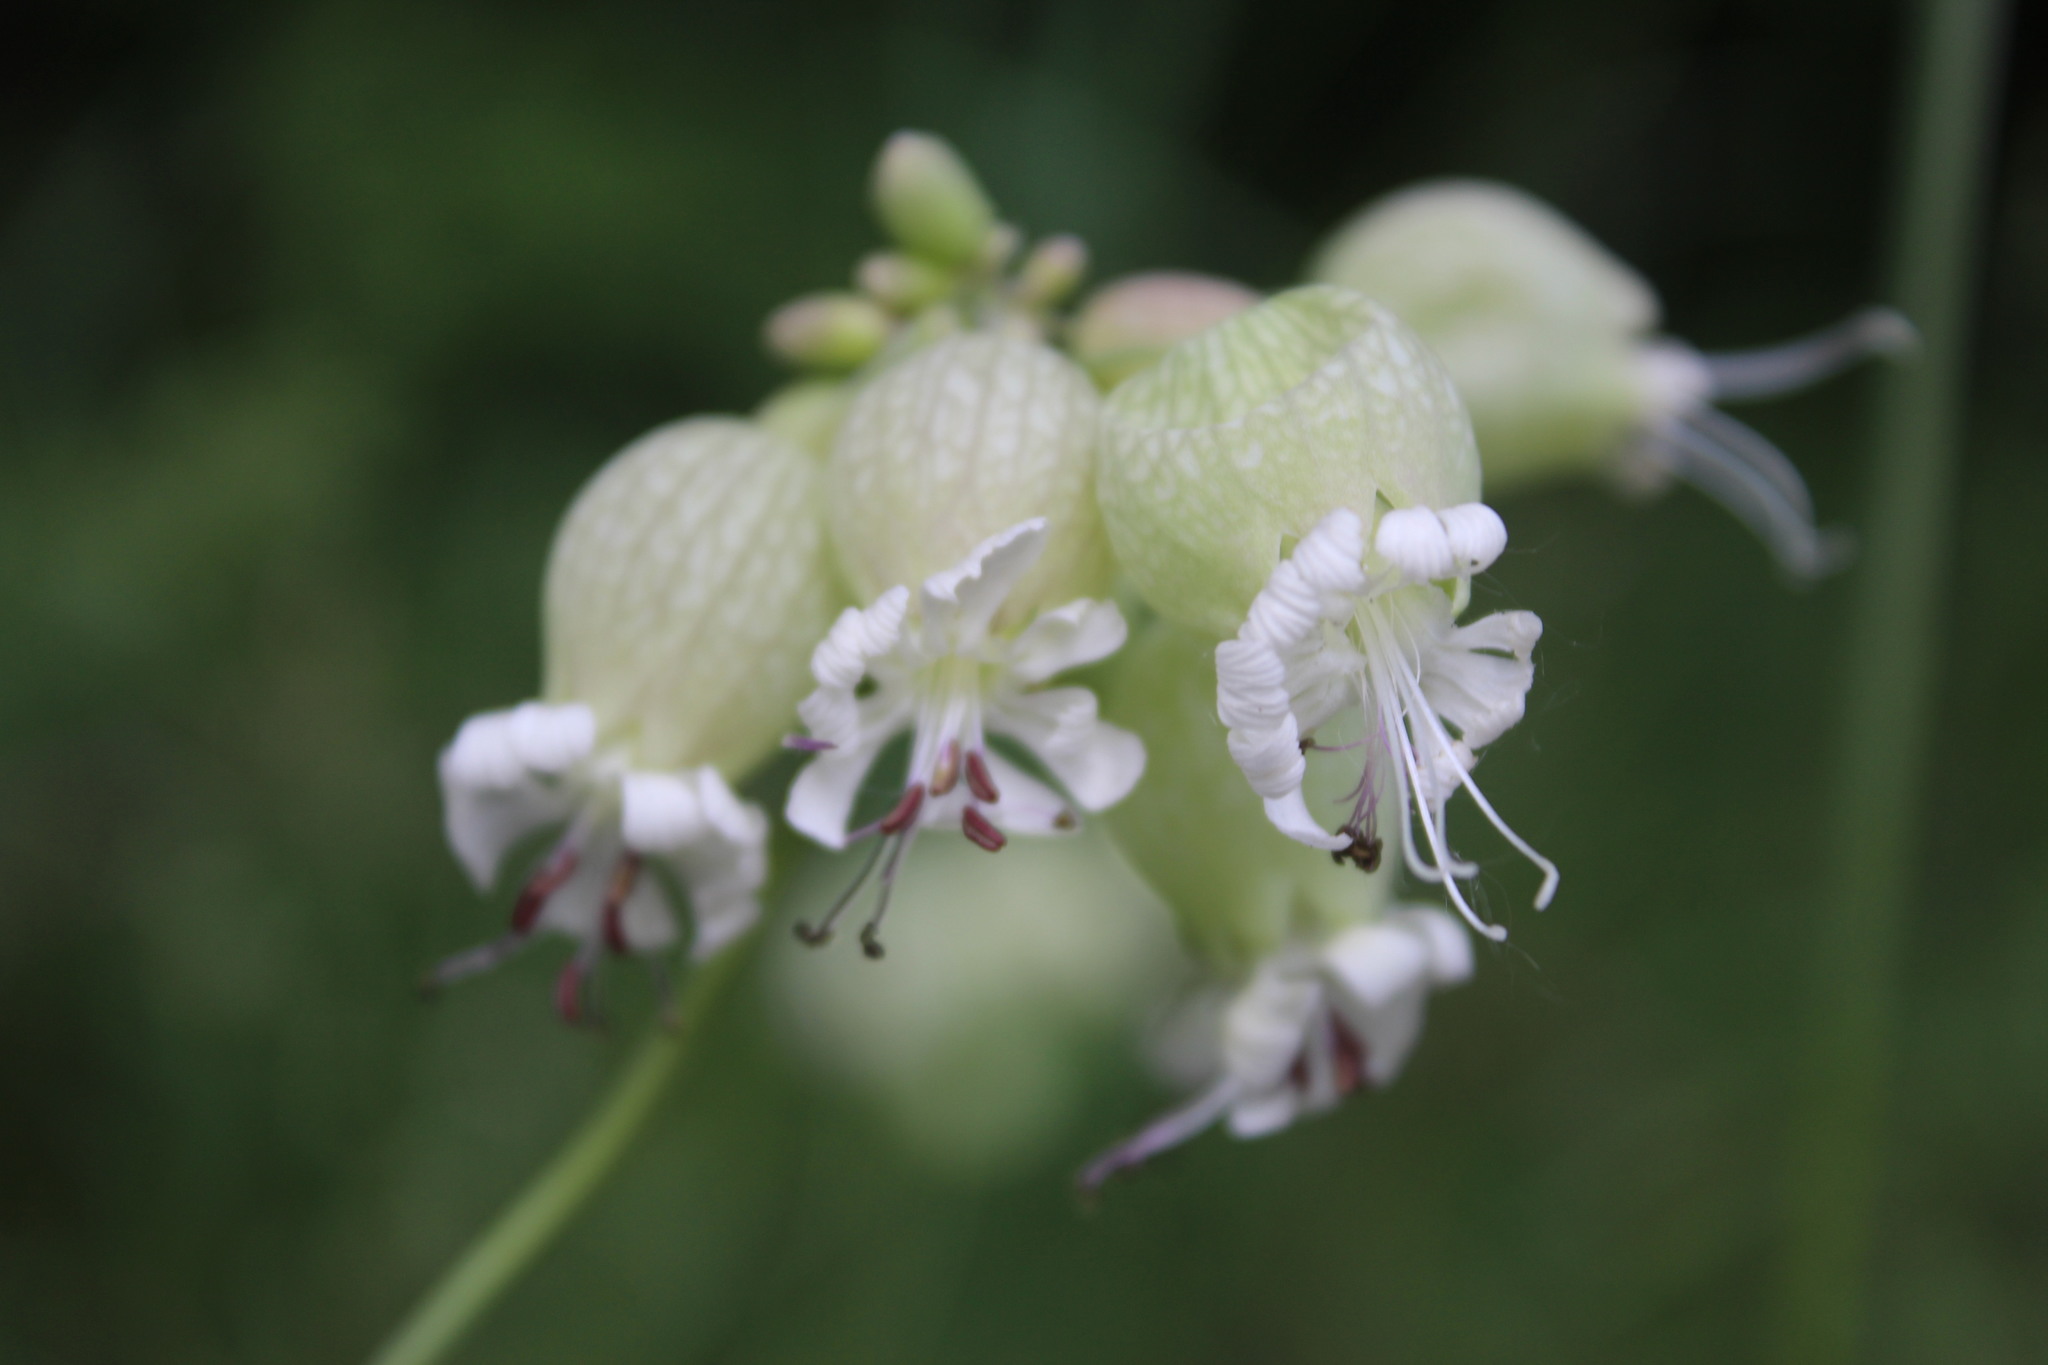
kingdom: Plantae
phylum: Tracheophyta
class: Magnoliopsida
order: Caryophyllales
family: Caryophyllaceae
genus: Silene
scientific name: Silene vulgaris
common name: Bladder campion
